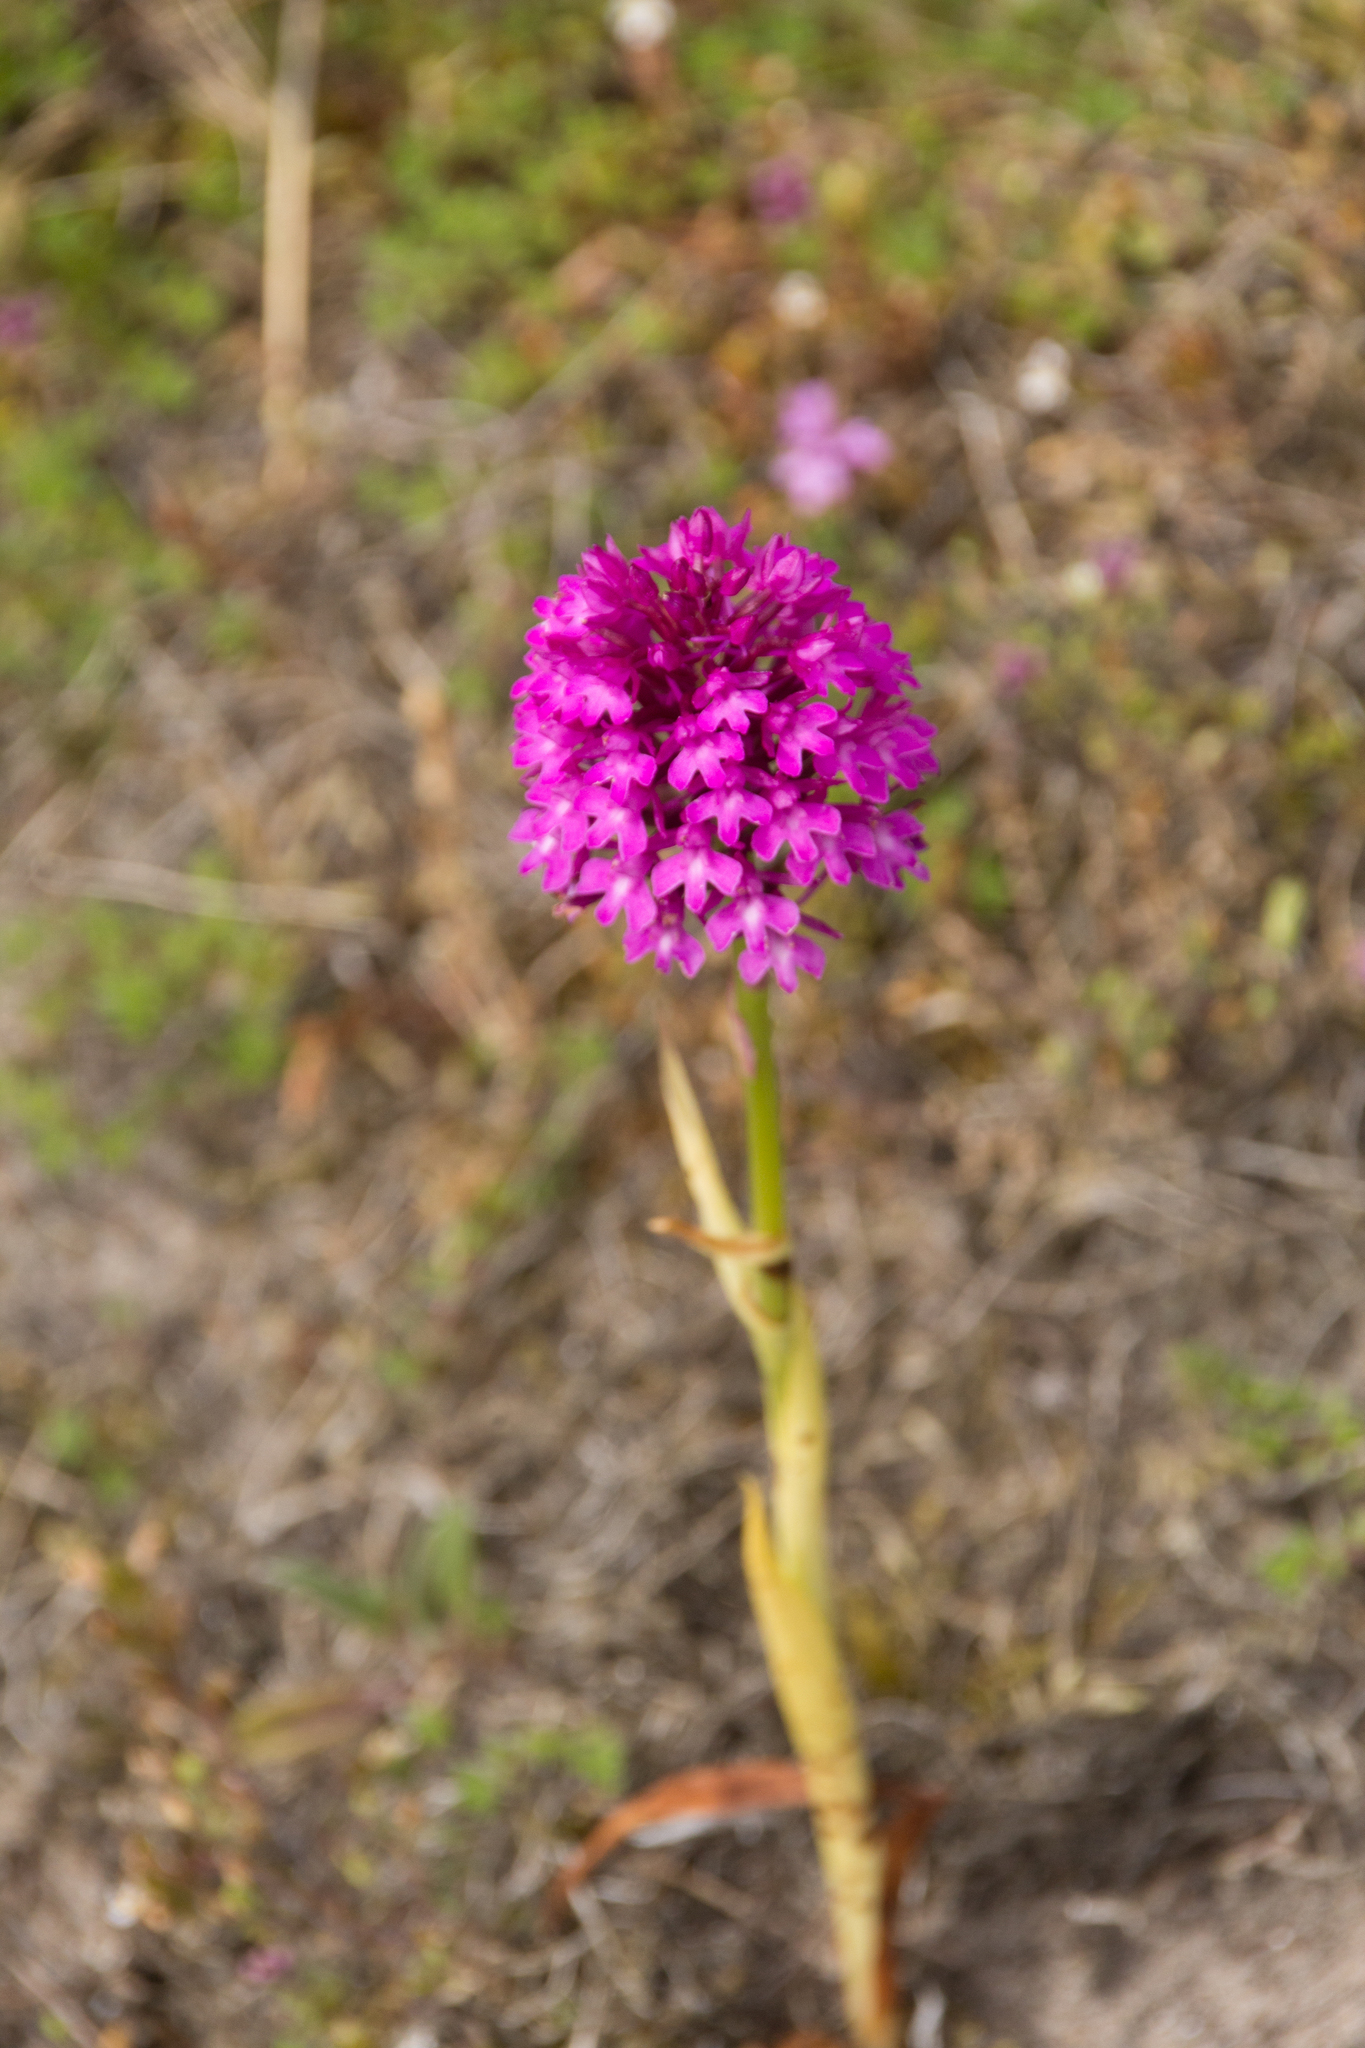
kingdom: Plantae
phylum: Tracheophyta
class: Liliopsida
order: Asparagales
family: Orchidaceae
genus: Anacamptis
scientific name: Anacamptis pyramidalis
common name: Pyramidal orchid
